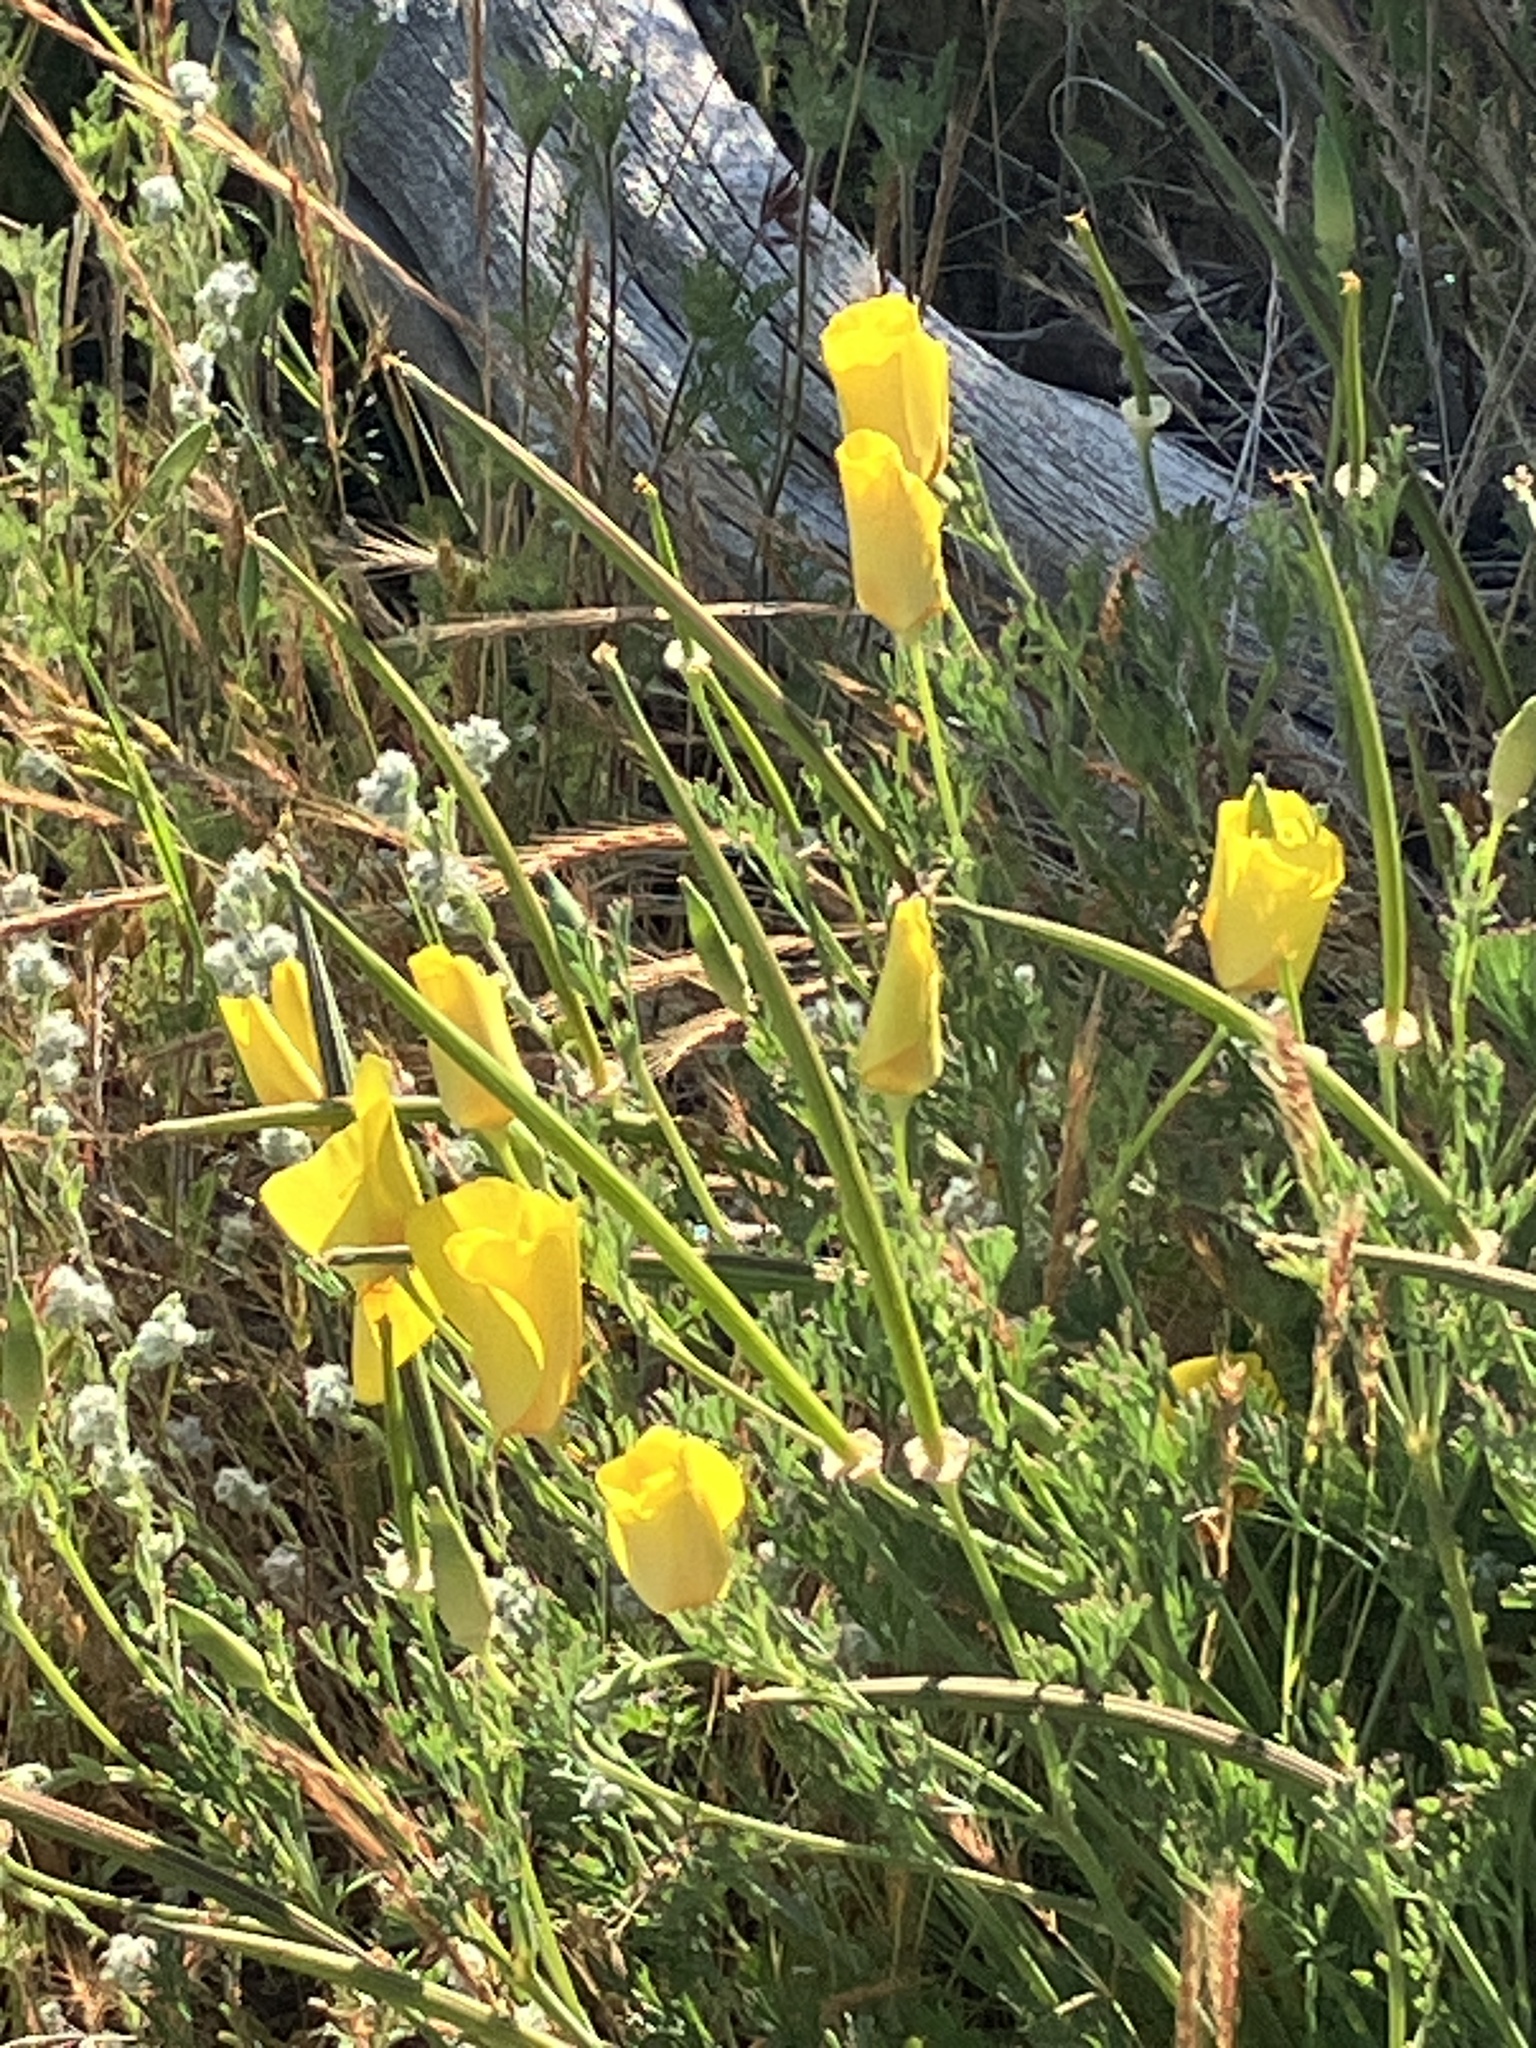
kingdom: Plantae
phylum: Tracheophyta
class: Magnoliopsida
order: Ranunculales
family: Papaveraceae
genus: Eschscholzia
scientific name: Eschscholzia californica
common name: California poppy
